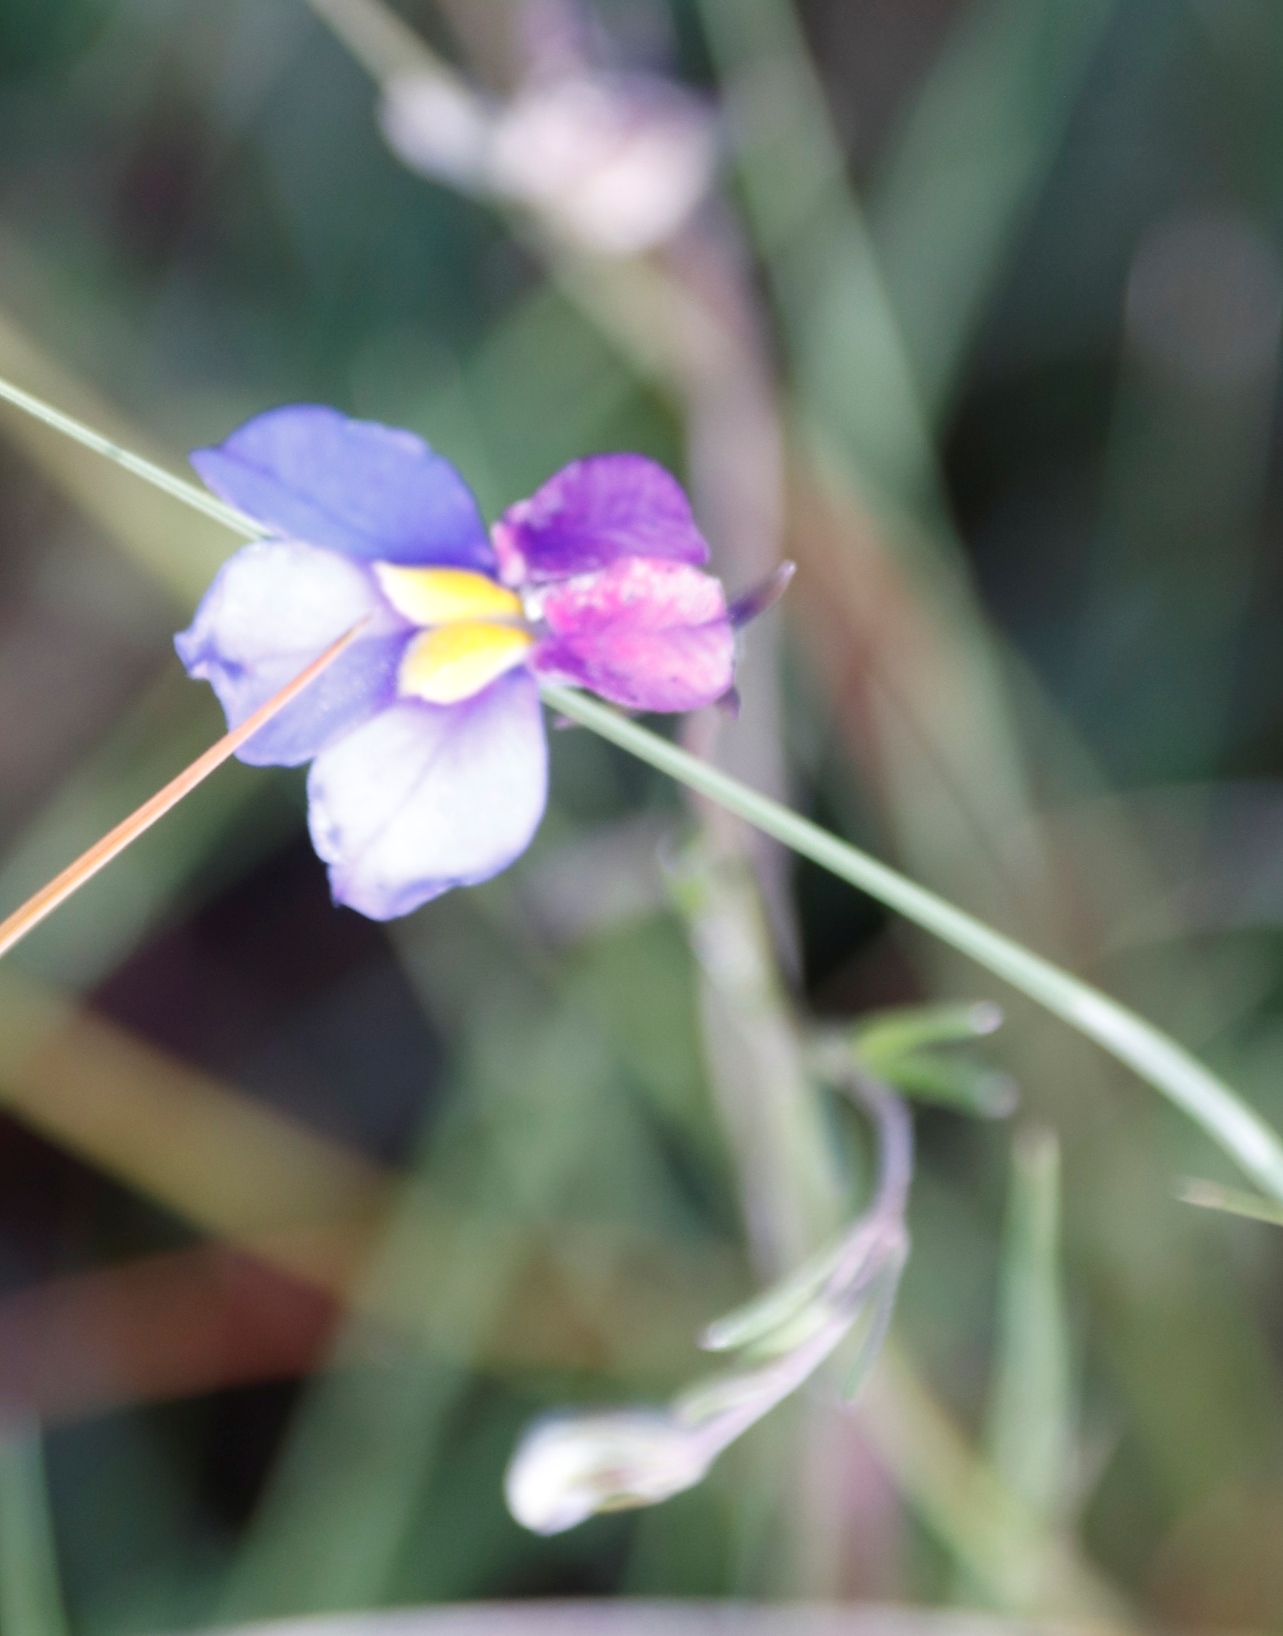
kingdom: Plantae
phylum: Tracheophyta
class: Magnoliopsida
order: Asterales
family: Campanulaceae
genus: Monopsis
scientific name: Monopsis decipiens
